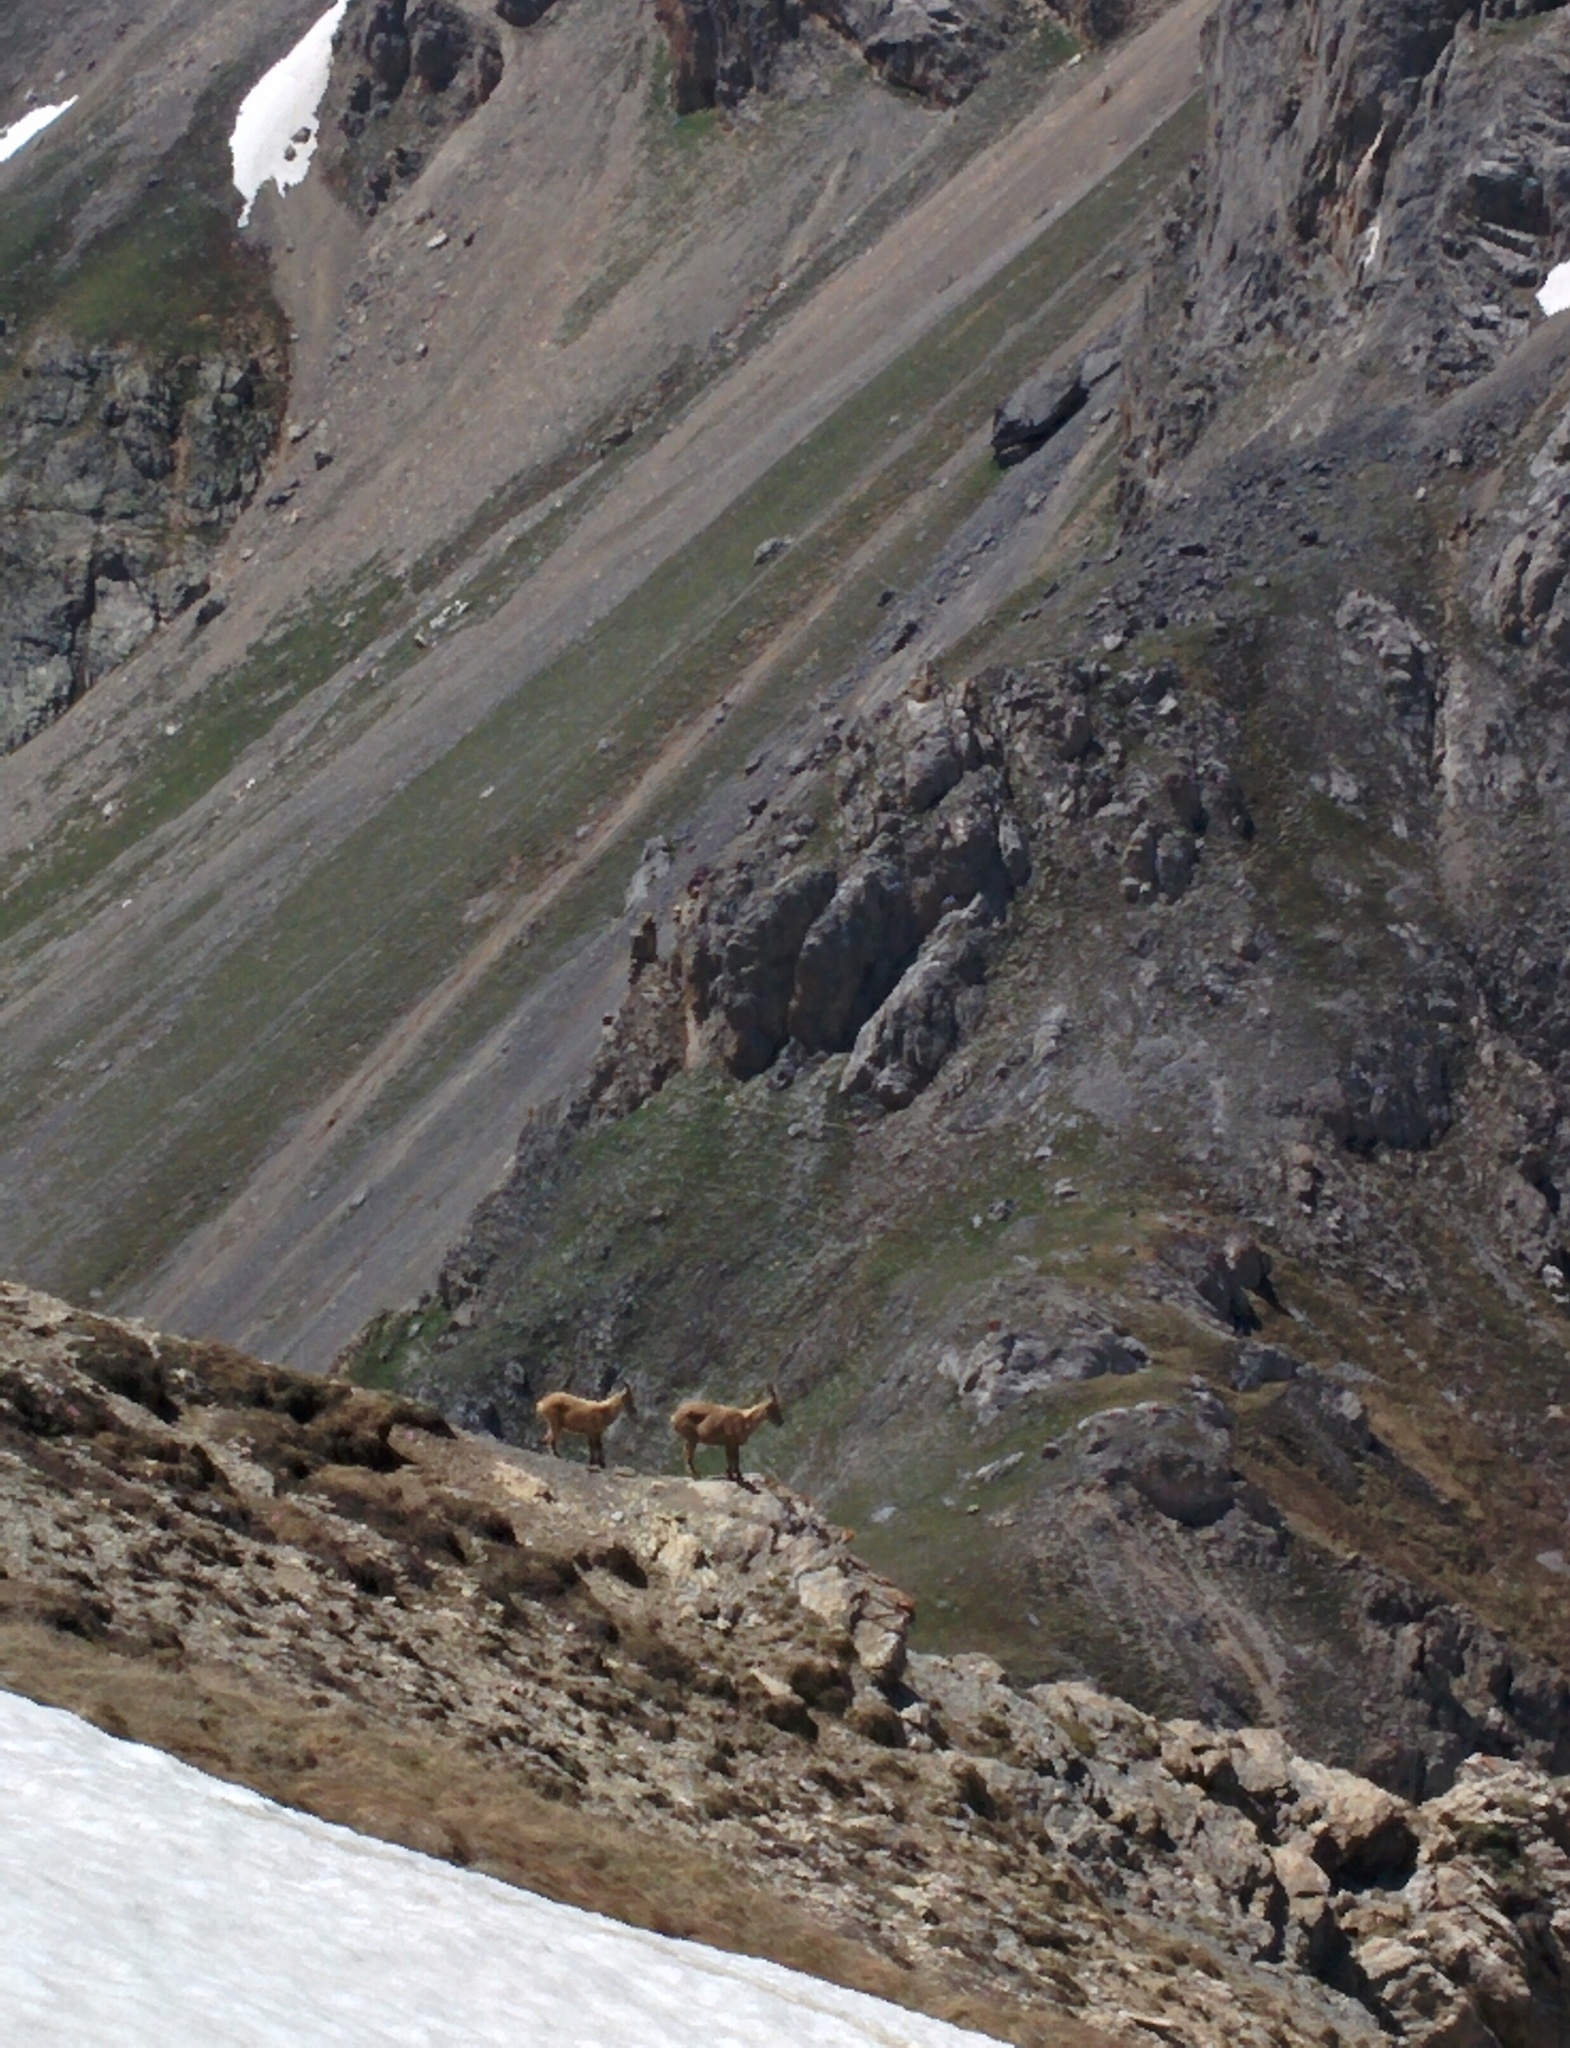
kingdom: Animalia
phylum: Chordata
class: Mammalia
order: Artiodactyla
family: Bovidae
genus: Capra
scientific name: Capra ibex
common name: Alpine ibex
